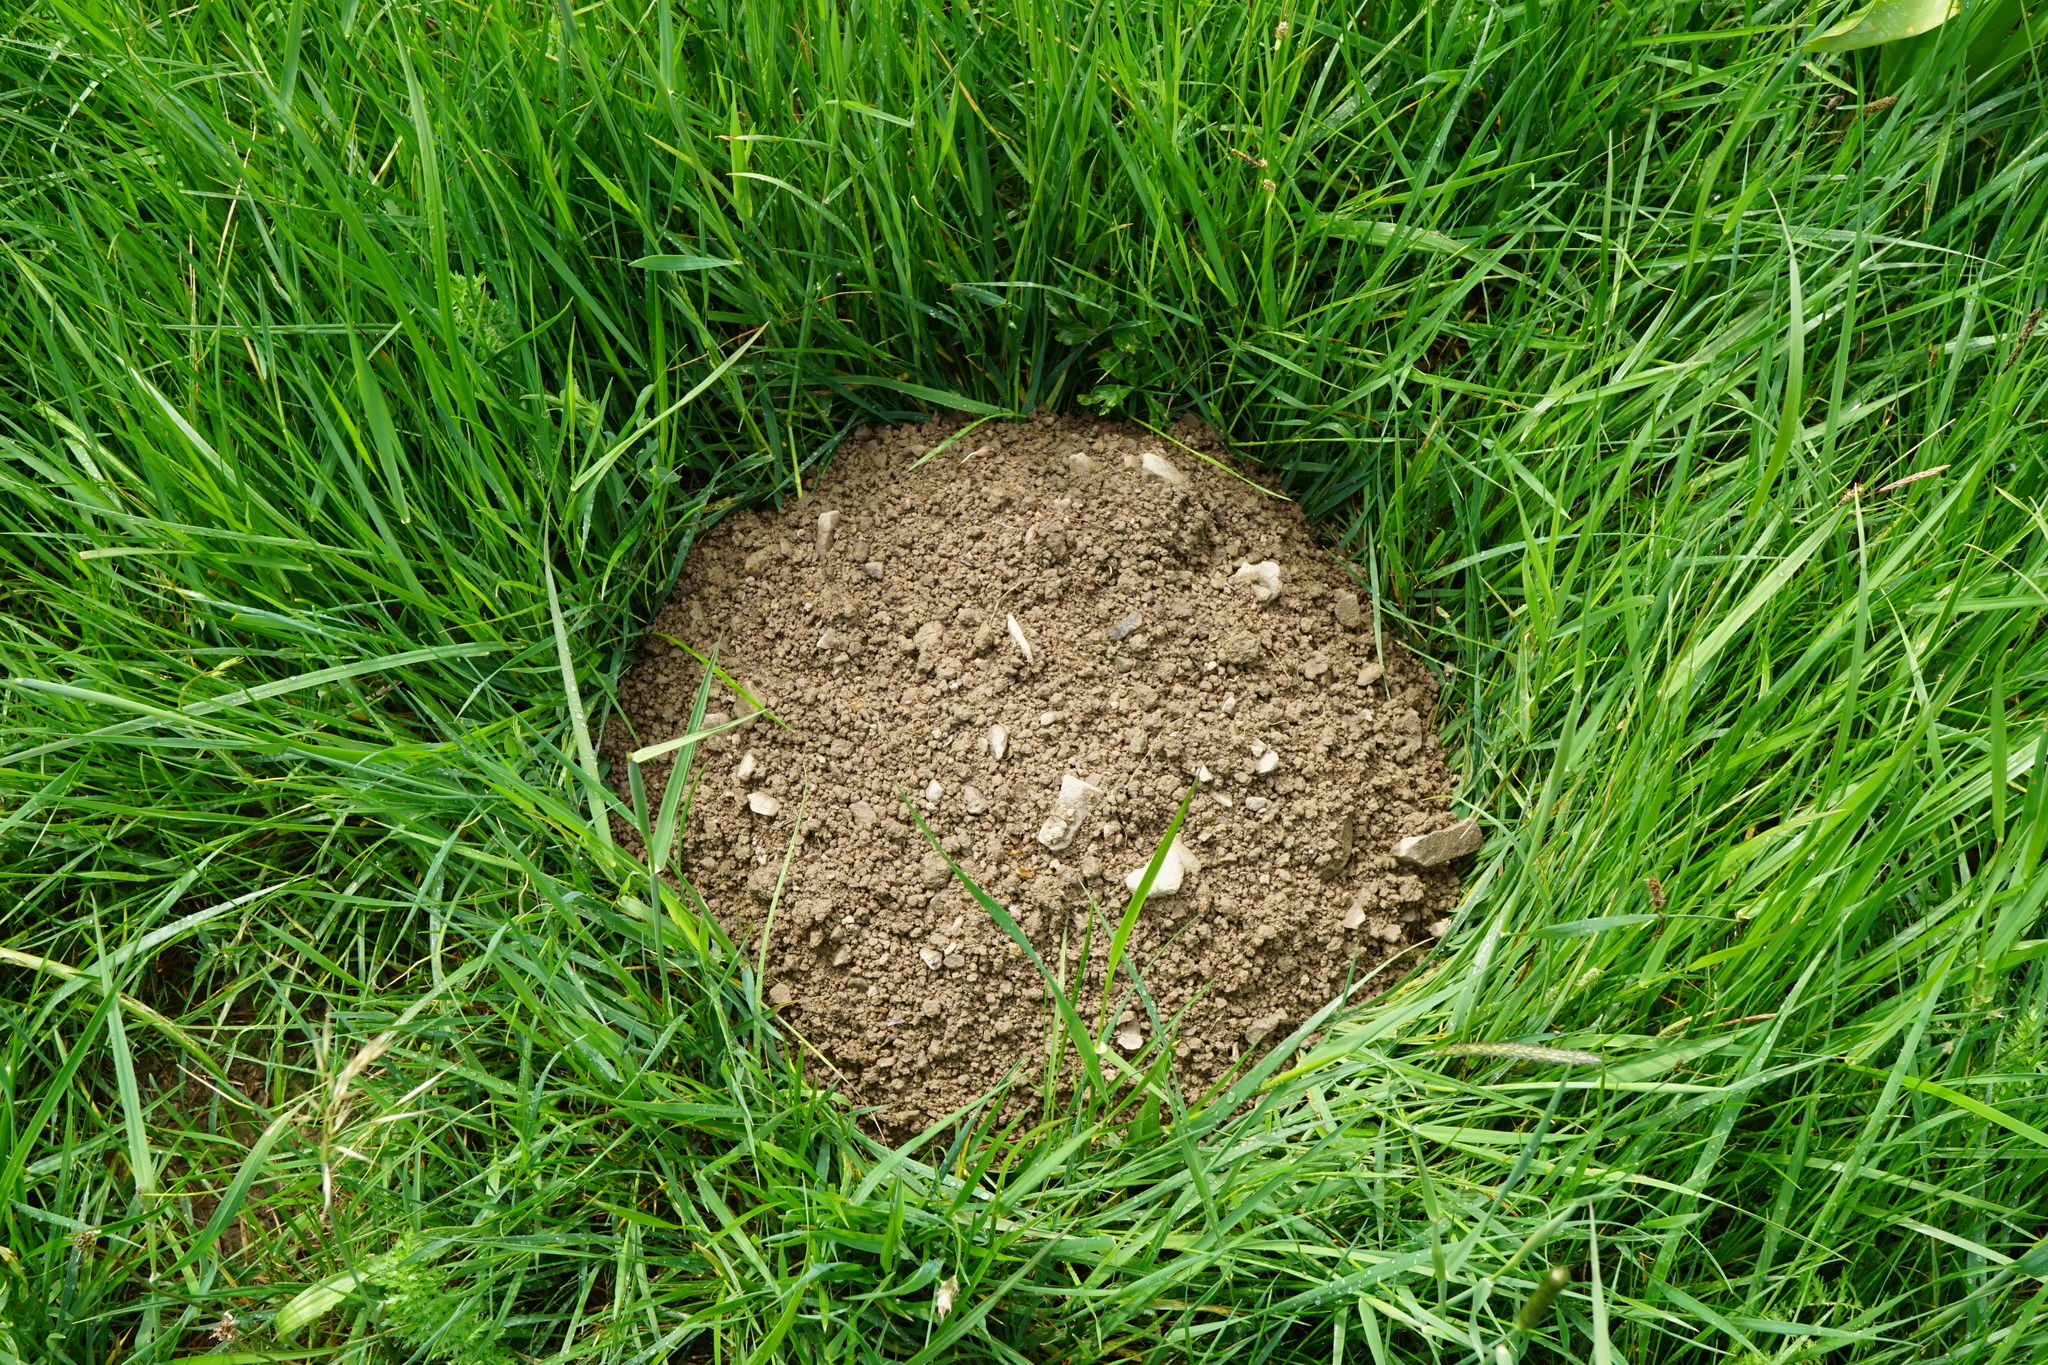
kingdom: Animalia
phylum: Chordata
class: Mammalia
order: Soricomorpha
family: Talpidae
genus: Talpa
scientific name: Talpa europaea
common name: European mole
